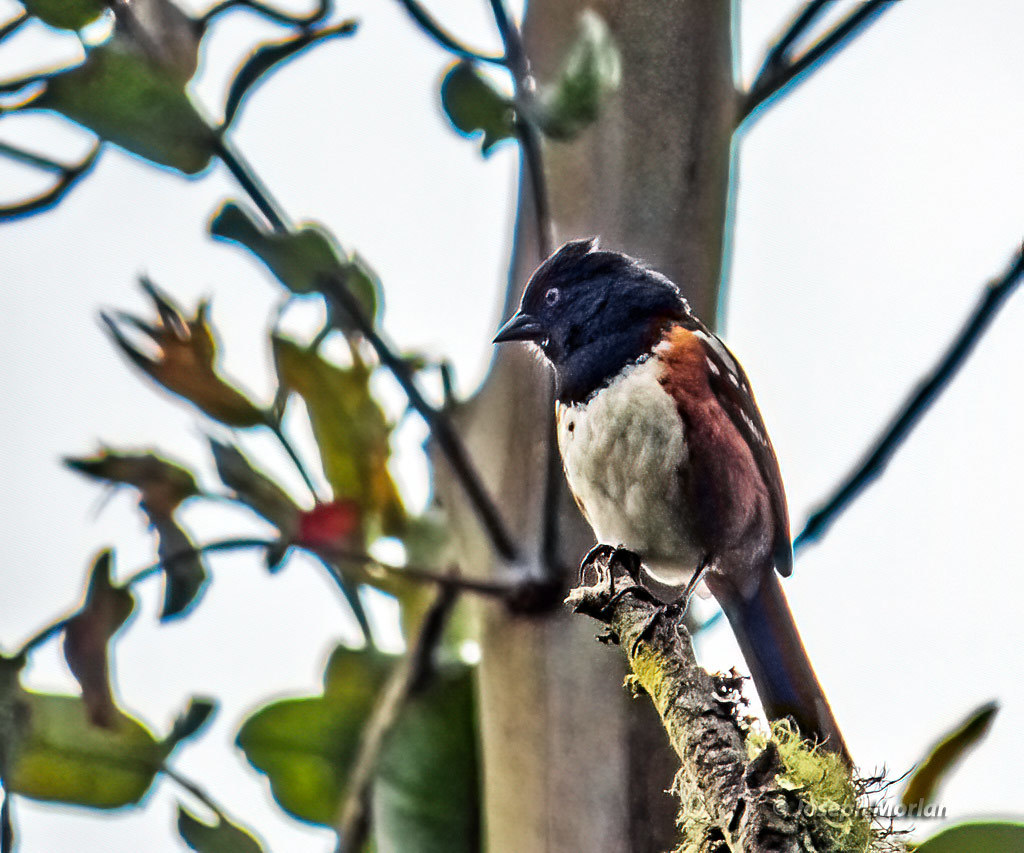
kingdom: Animalia
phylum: Chordata
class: Aves
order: Passeriformes
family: Passerellidae
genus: Pipilo
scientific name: Pipilo maculatus
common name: Spotted towhee
